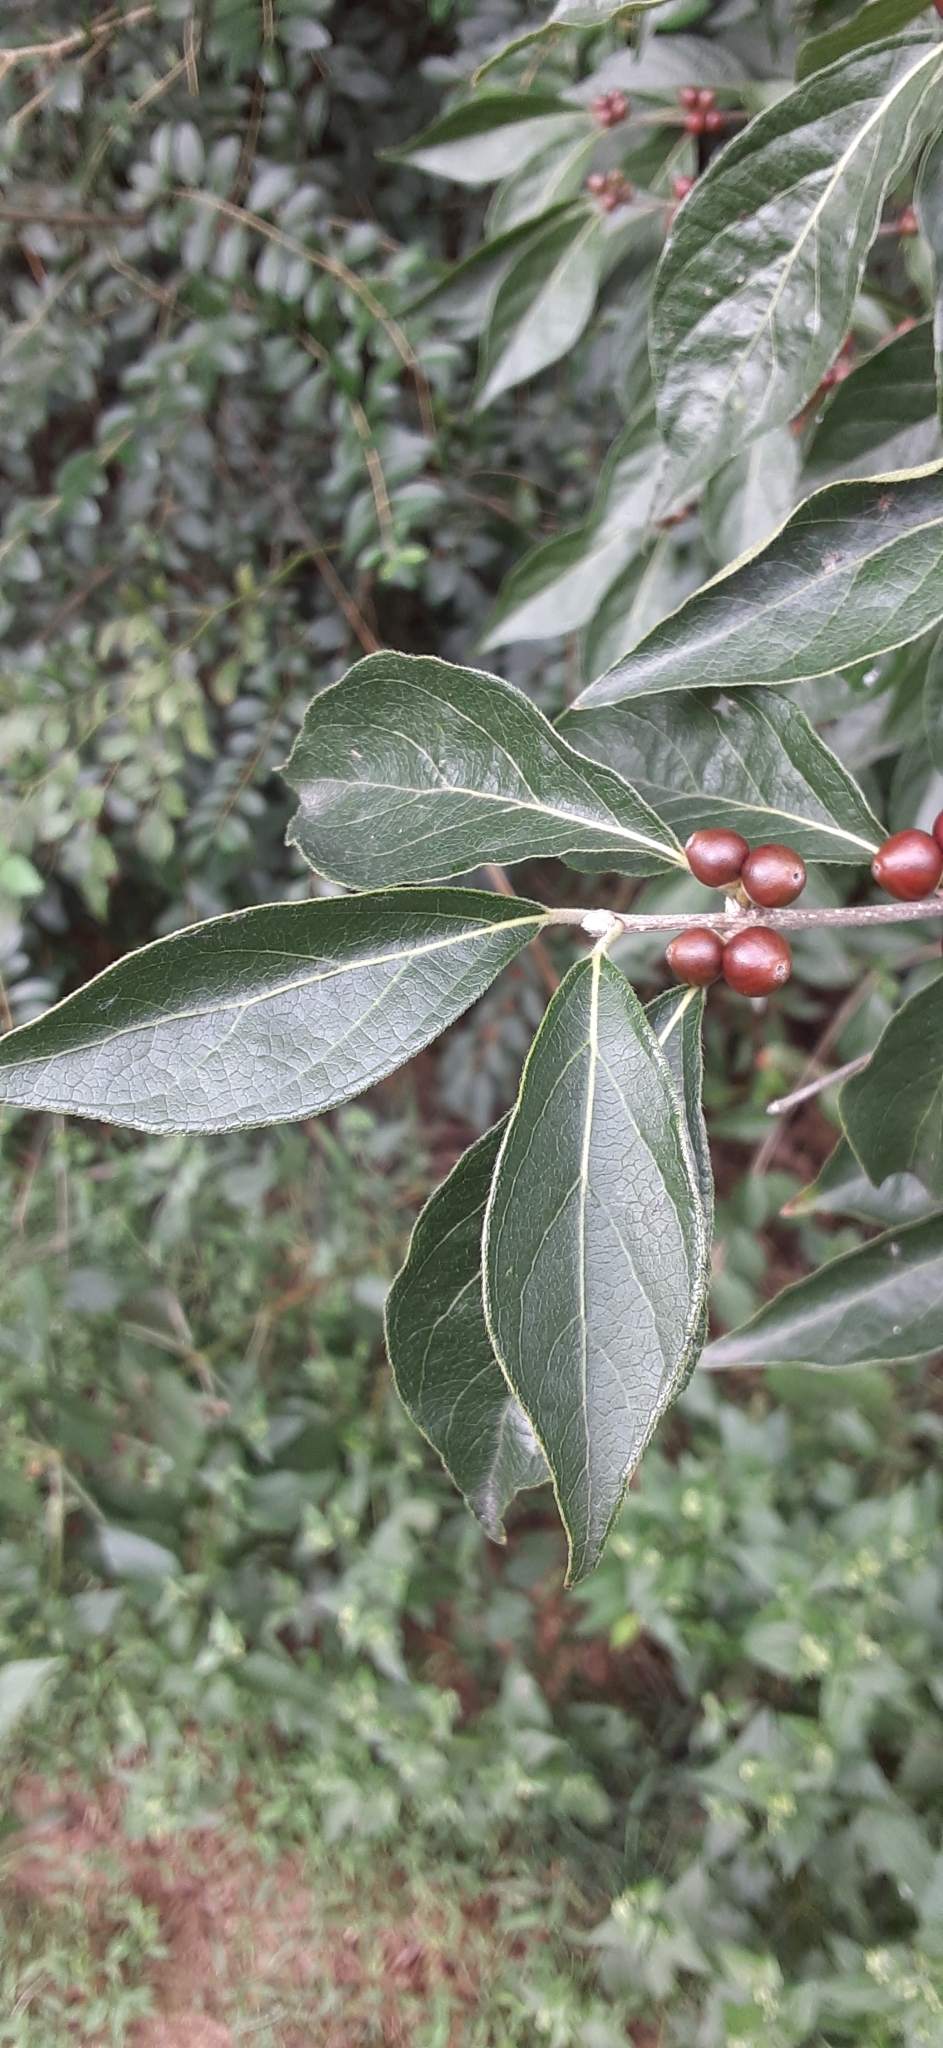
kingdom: Plantae
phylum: Tracheophyta
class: Magnoliopsida
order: Dipsacales
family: Caprifoliaceae
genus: Lonicera
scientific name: Lonicera maackii
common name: Amur honeysuckle
